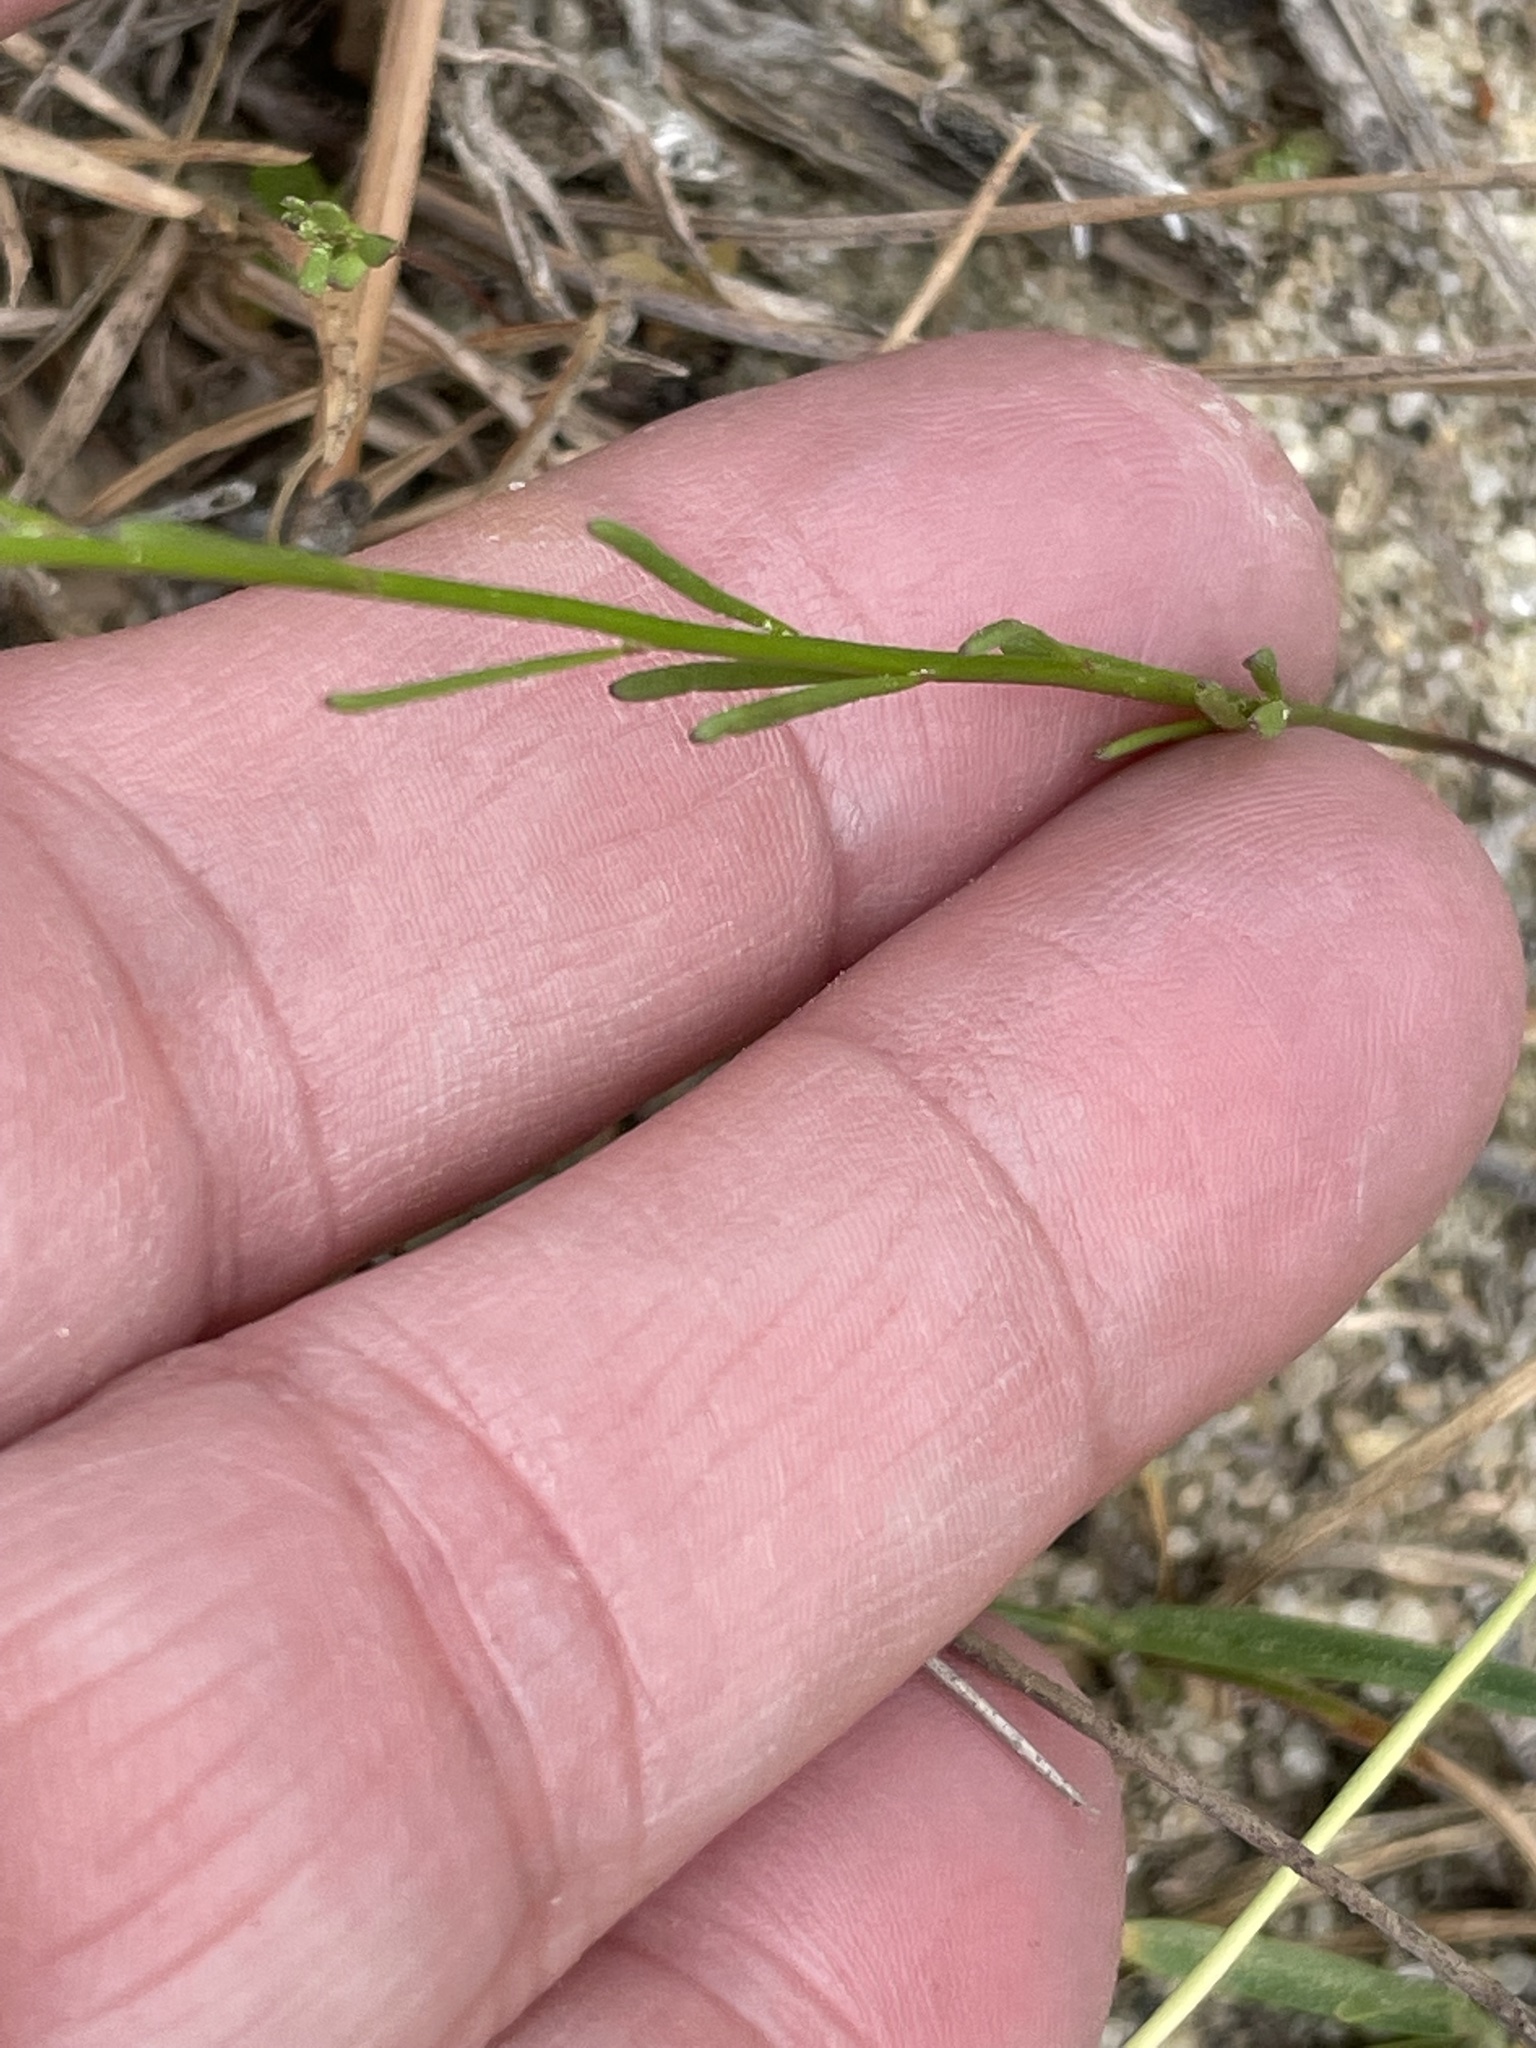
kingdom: Plantae
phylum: Tracheophyta
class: Magnoliopsida
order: Lamiales
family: Plantaginaceae
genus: Nuttallanthus
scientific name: Nuttallanthus canadensis
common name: Blue toadflax
